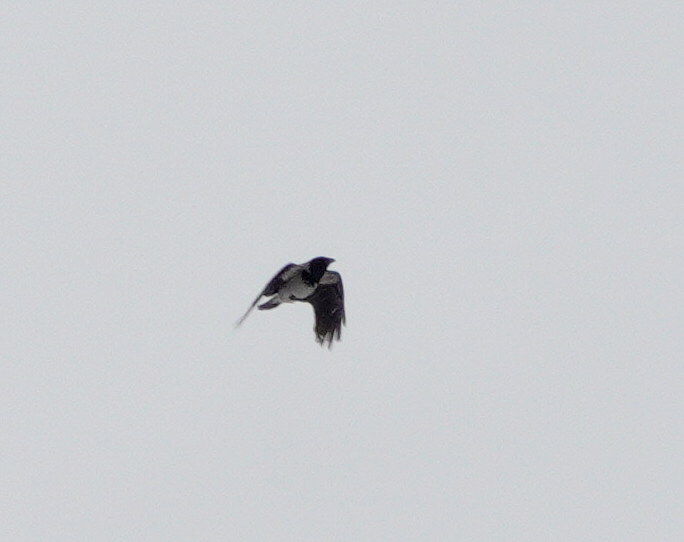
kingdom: Animalia
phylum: Chordata
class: Aves
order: Passeriformes
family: Corvidae
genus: Corvus
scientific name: Corvus cornix
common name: Hooded crow
